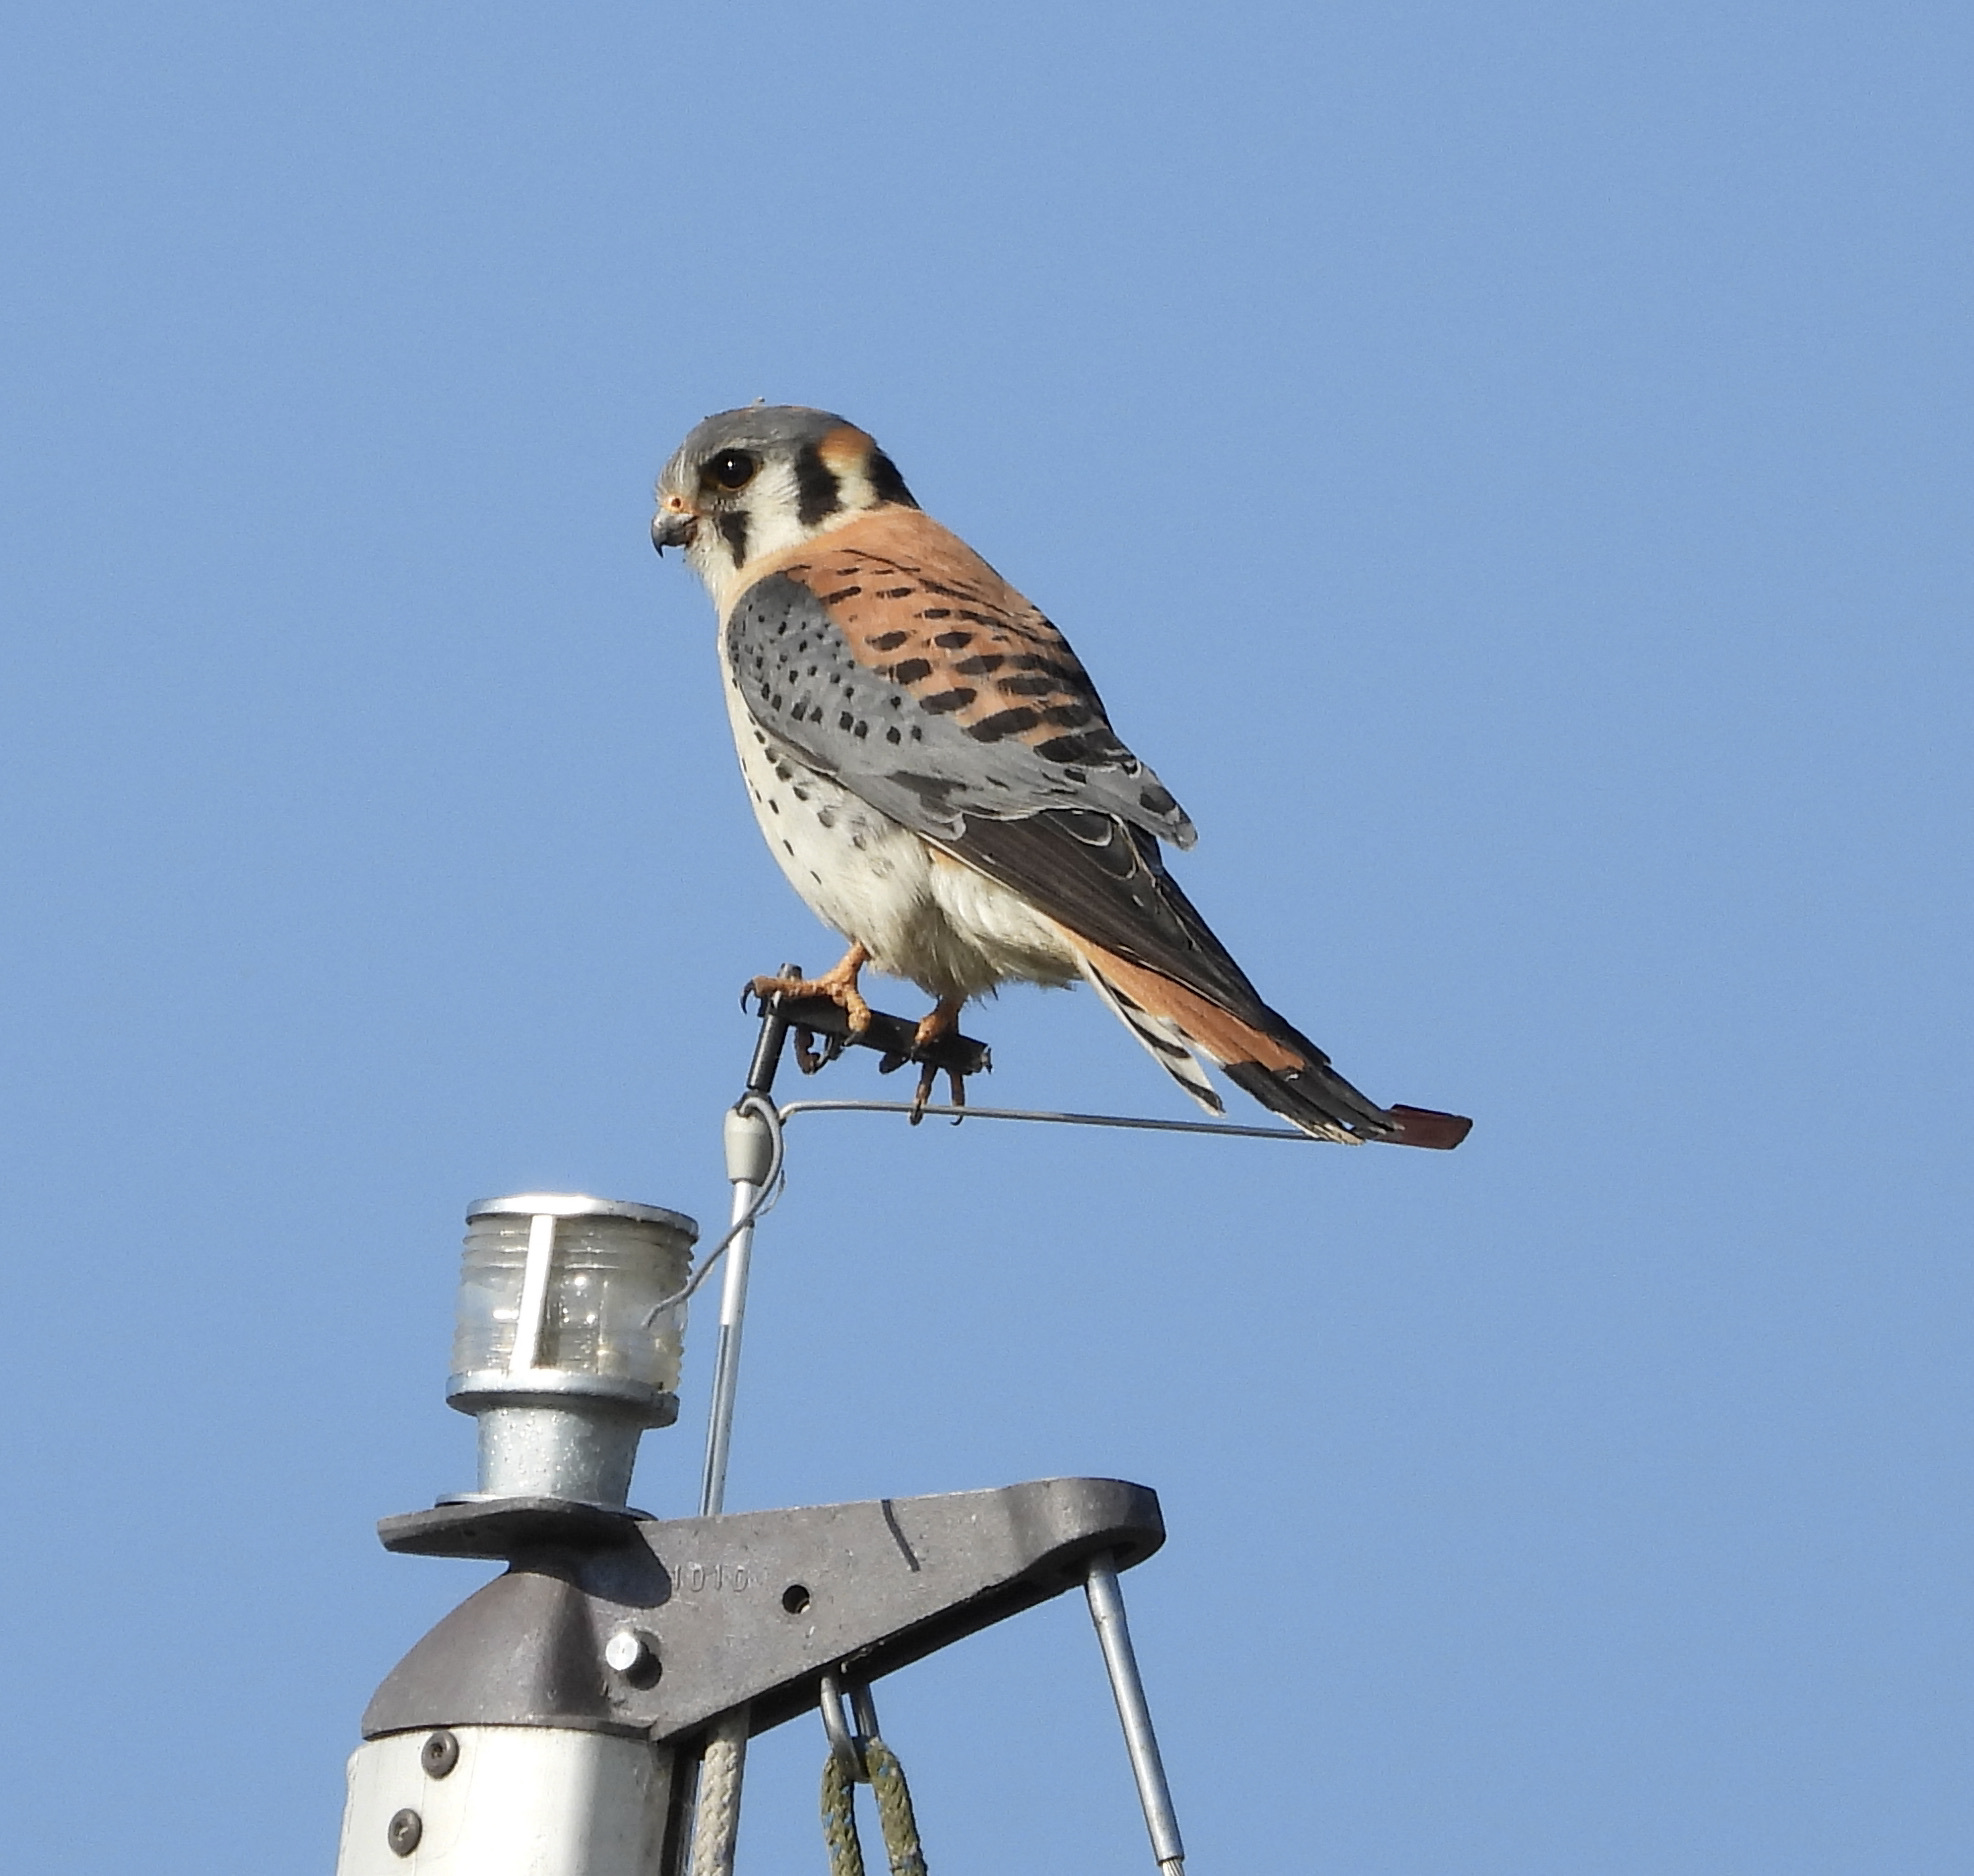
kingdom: Animalia
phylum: Chordata
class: Aves
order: Falconiformes
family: Falconidae
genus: Falco
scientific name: Falco sparverius
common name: American kestrel
